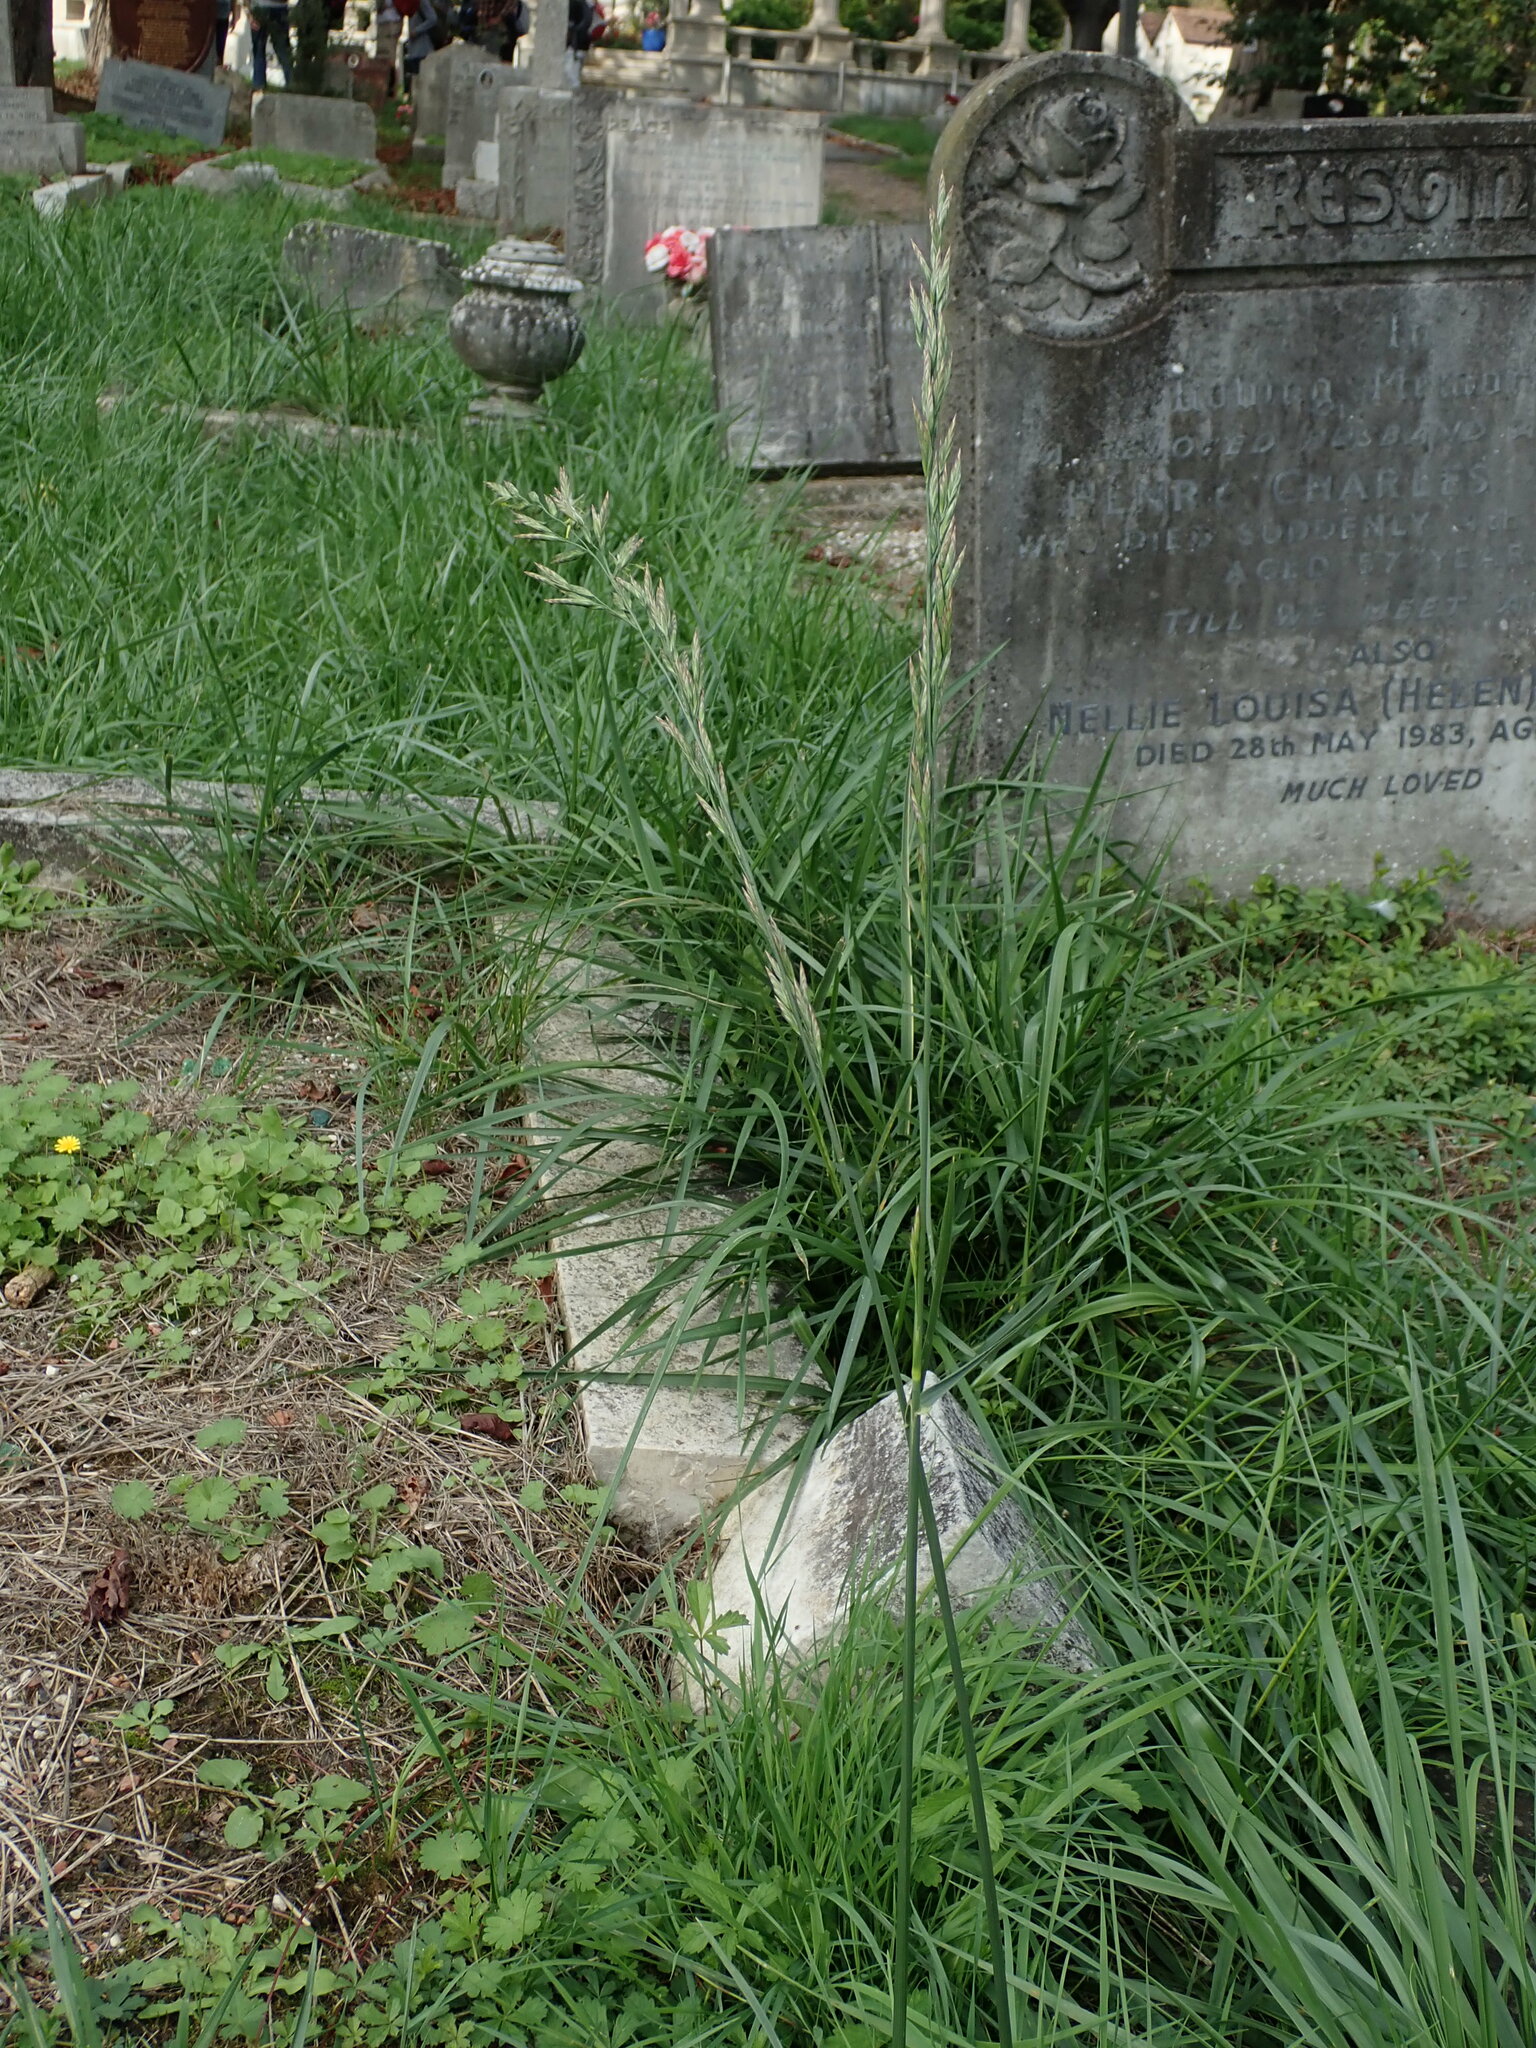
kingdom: Plantae
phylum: Tracheophyta
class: Liliopsida
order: Poales
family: Poaceae
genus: Lolium
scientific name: Lolium arundinaceum
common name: Reed fescue
